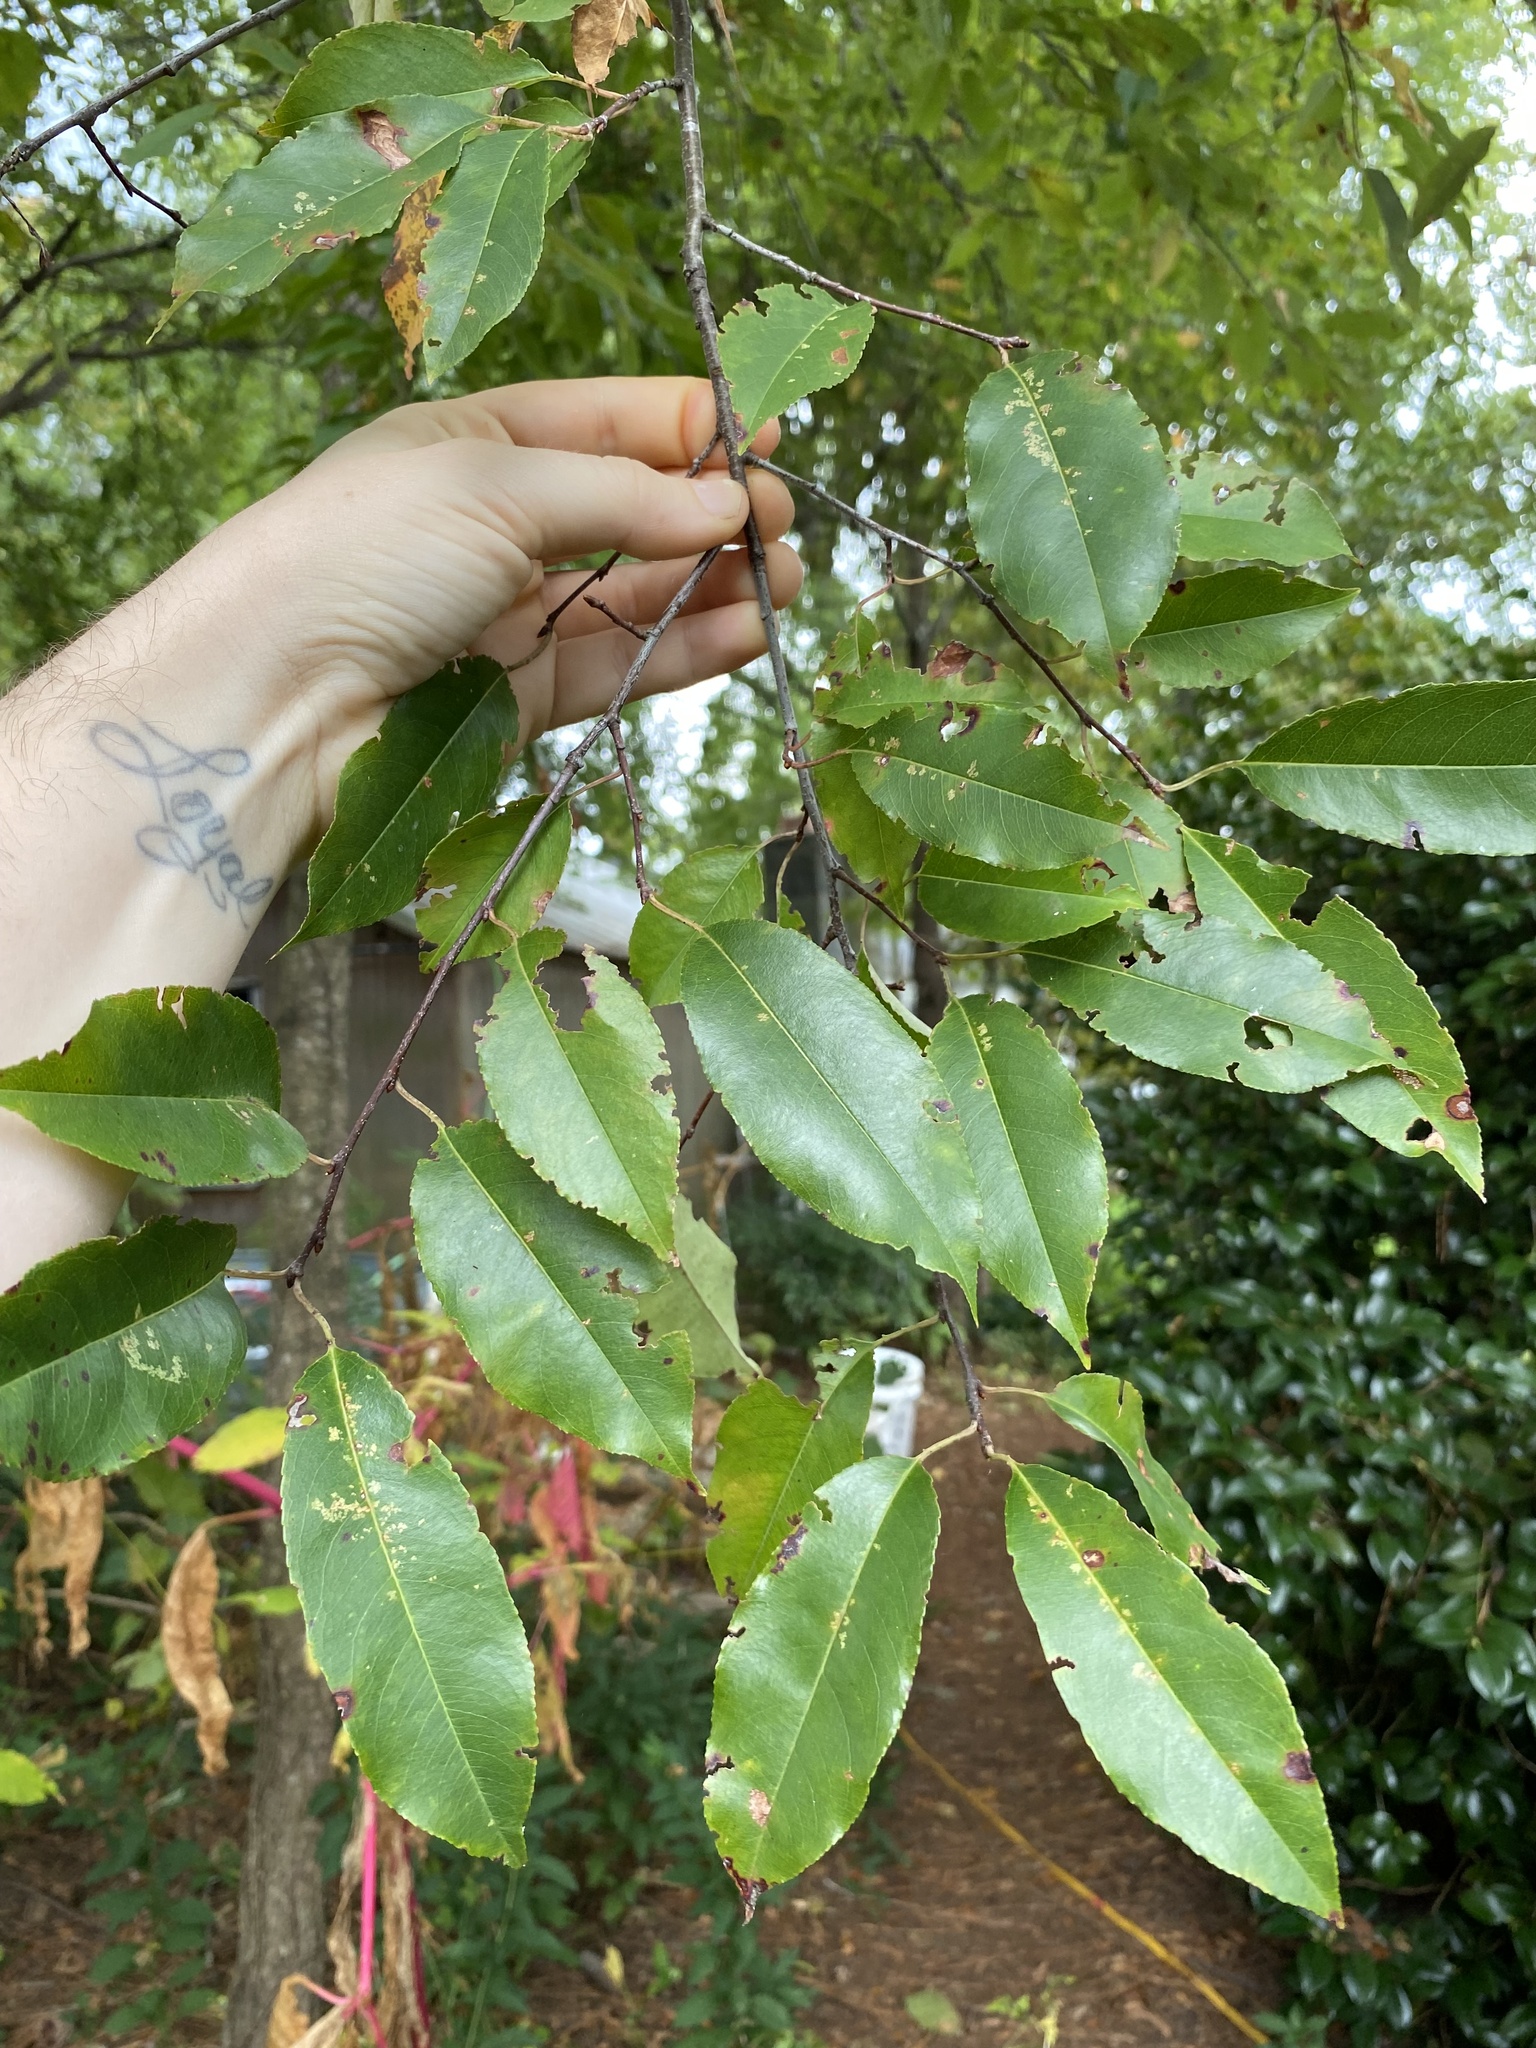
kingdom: Plantae
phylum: Tracheophyta
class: Magnoliopsida
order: Rosales
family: Rosaceae
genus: Prunus
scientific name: Prunus serotina
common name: Black cherry
